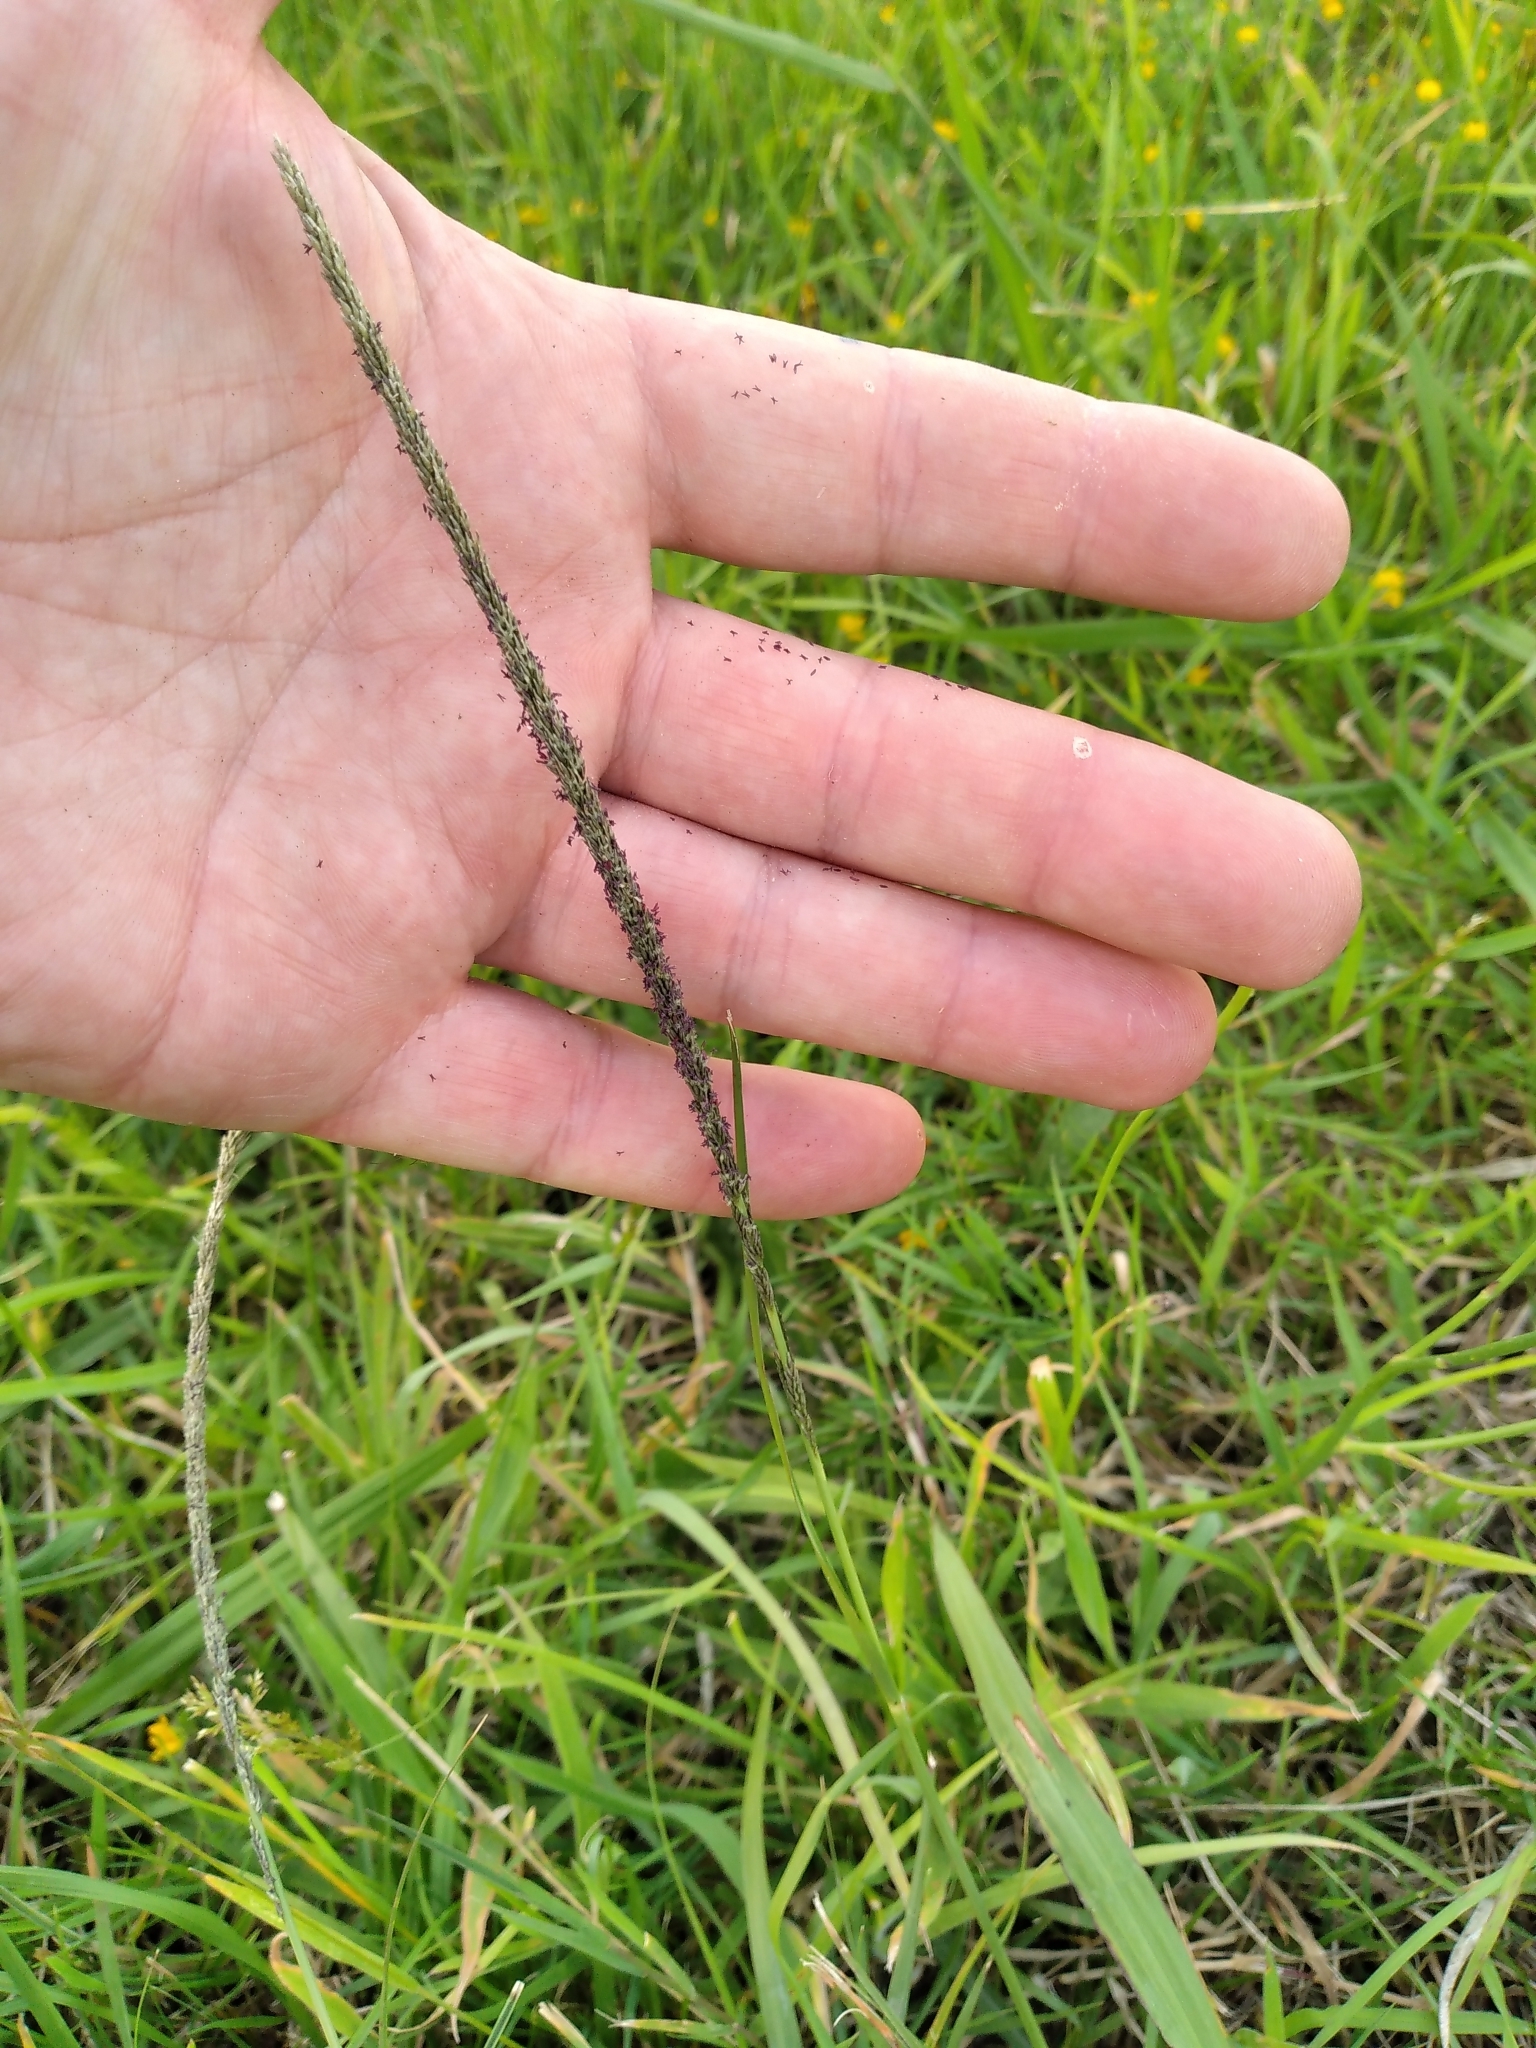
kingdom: Plantae
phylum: Tracheophyta
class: Liliopsida
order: Poales
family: Poaceae
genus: Sporobolus
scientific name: Sporobolus africanus
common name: African dropseed
